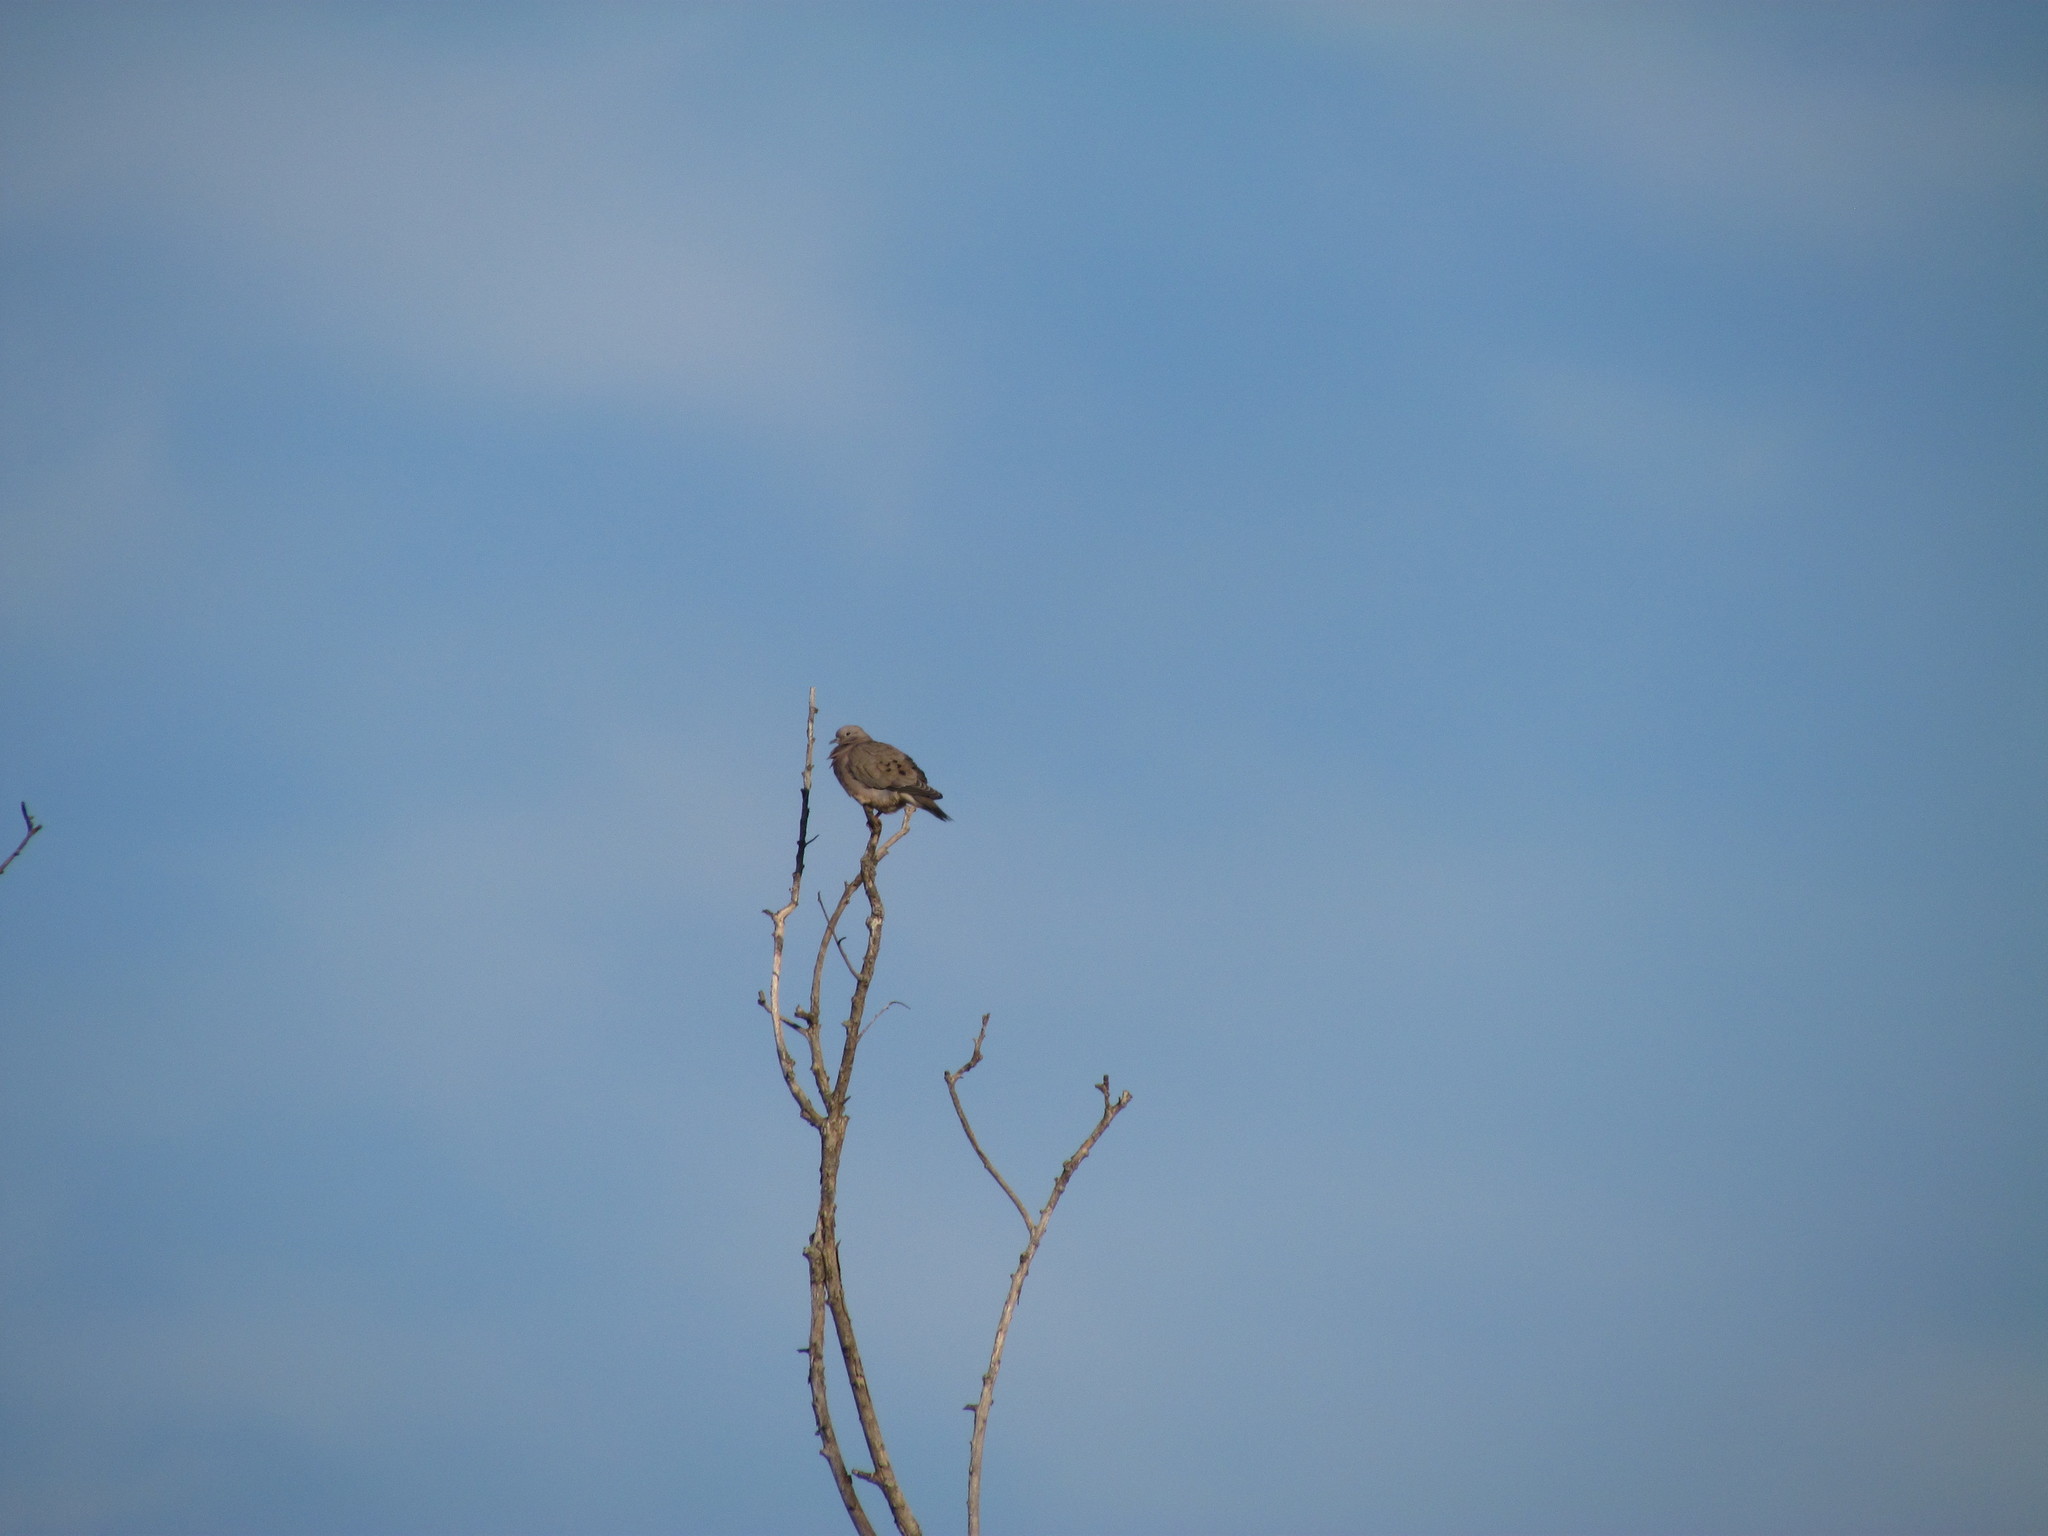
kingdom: Animalia
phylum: Chordata
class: Aves
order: Columbiformes
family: Columbidae
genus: Zenaida
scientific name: Zenaida auriculata
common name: Eared dove
